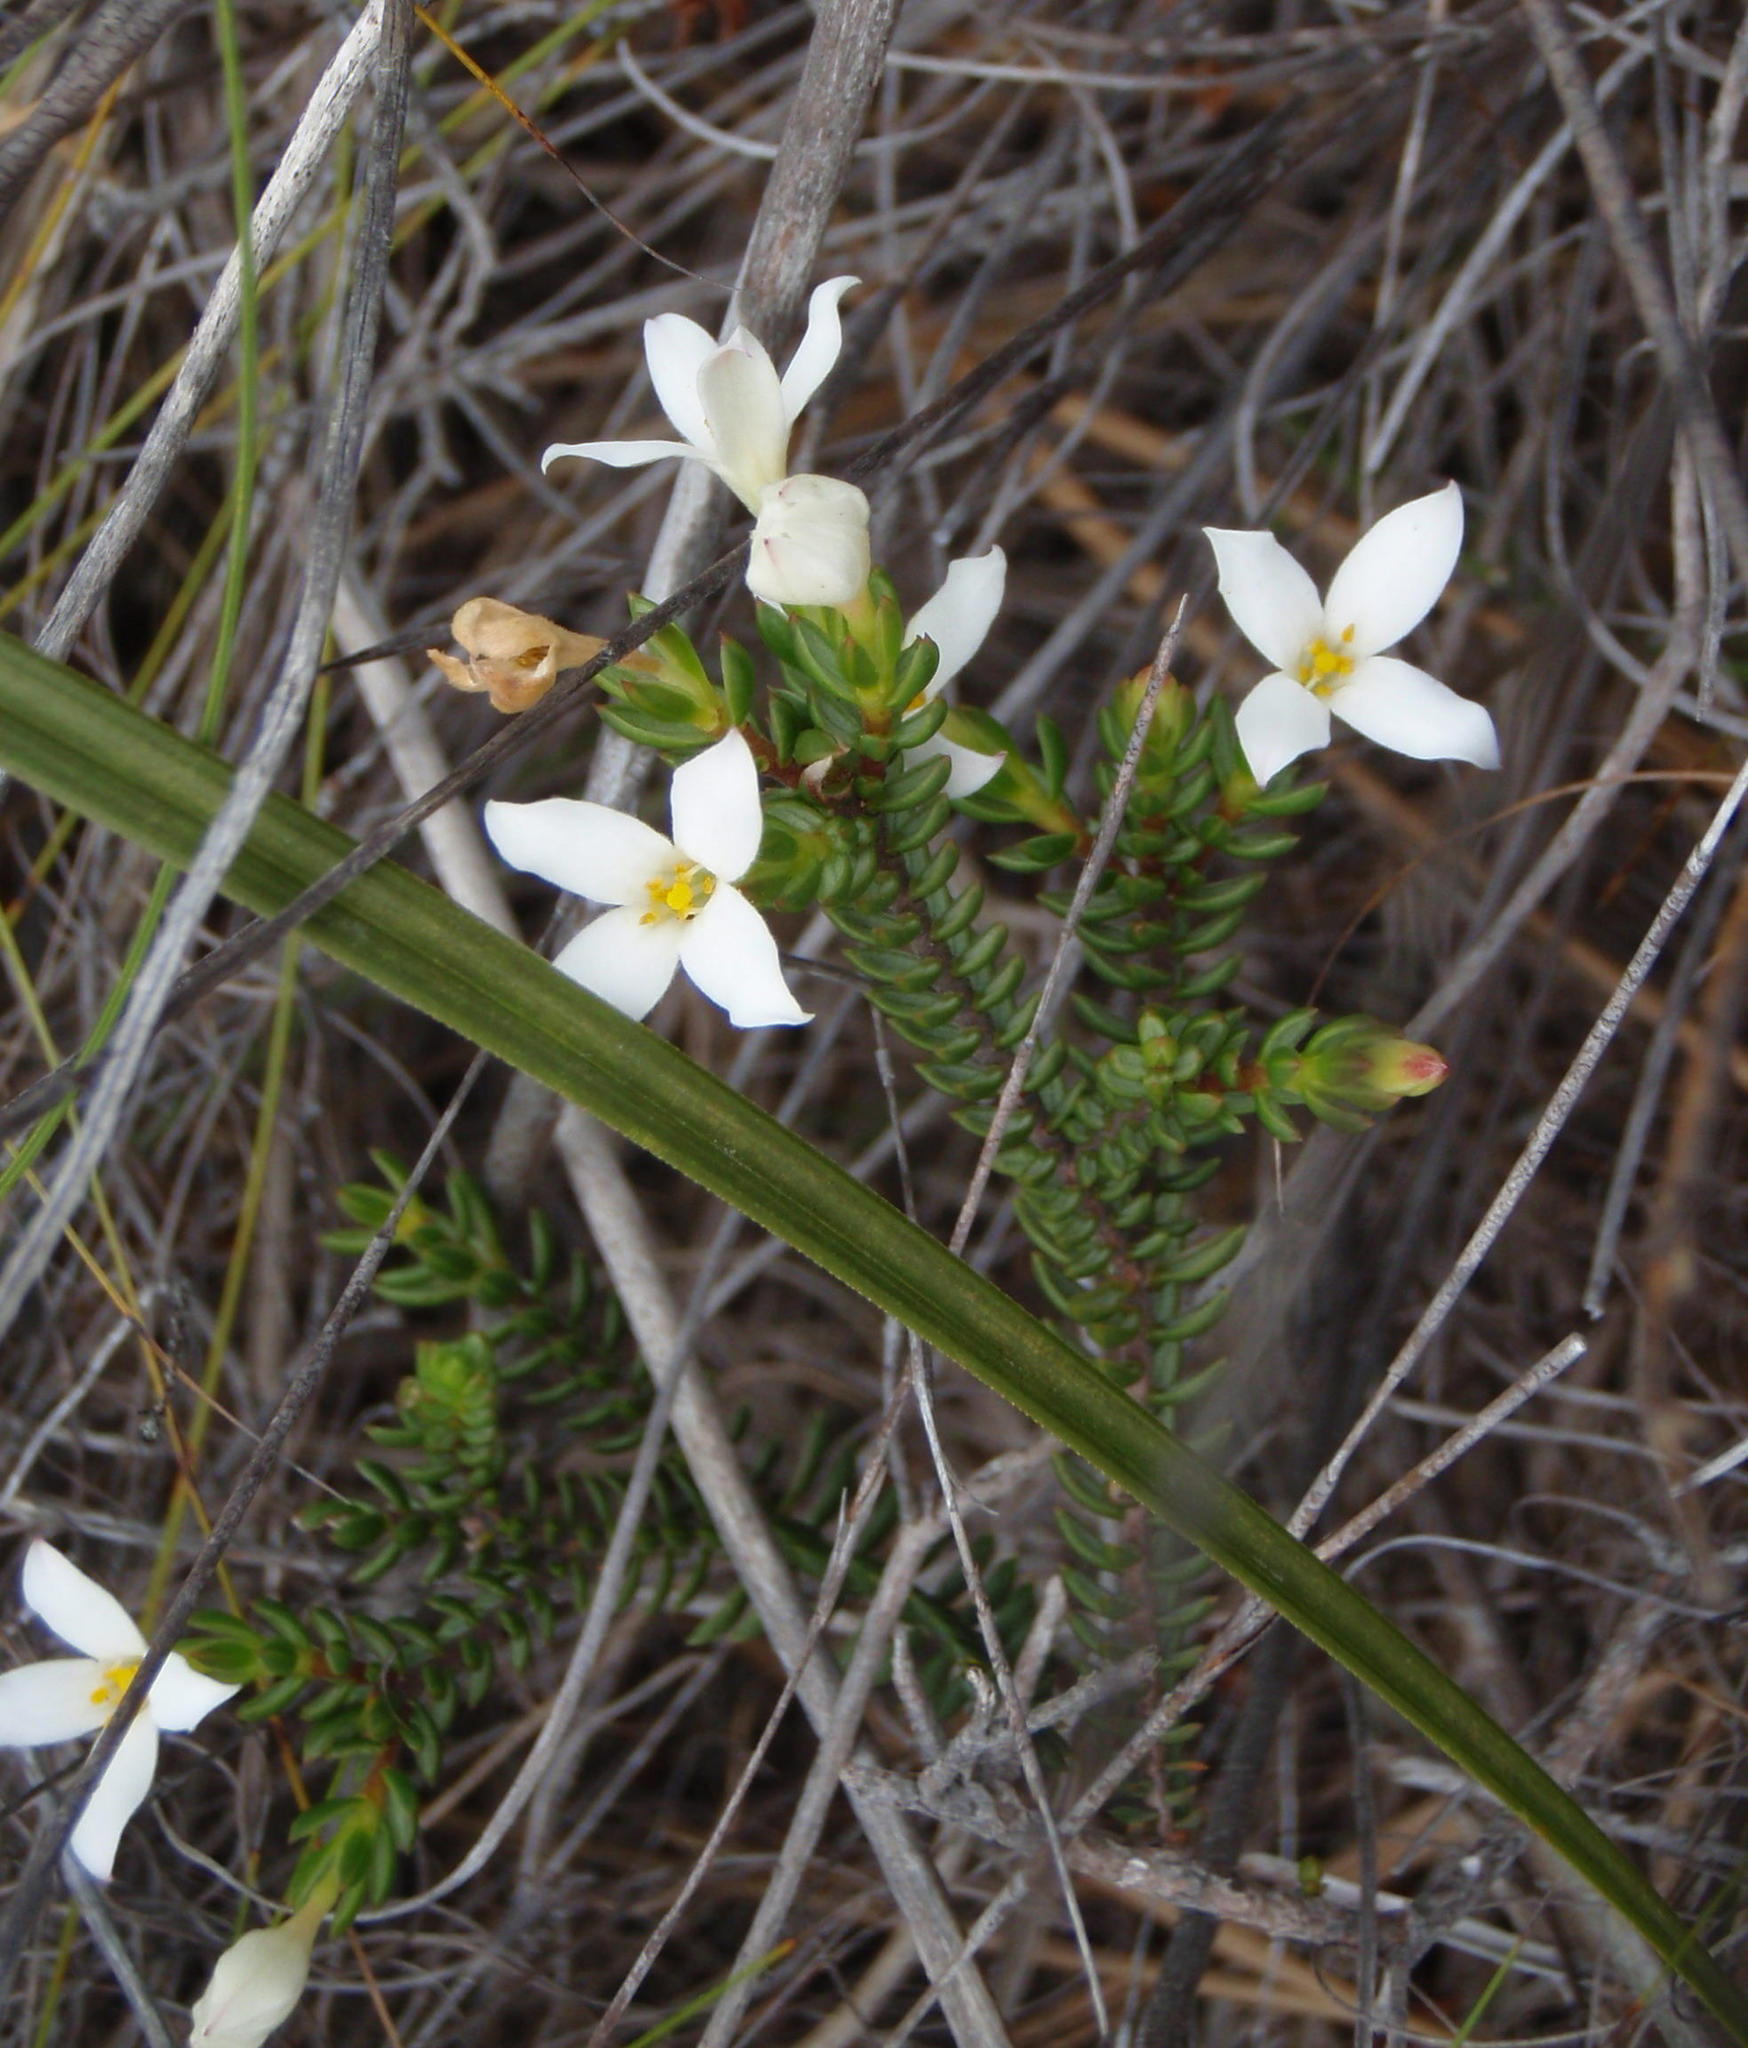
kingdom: Plantae
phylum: Tracheophyta
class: Magnoliopsida
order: Malvales
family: Thymelaeaceae
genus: Lachnaea
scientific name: Lachnaea grandiflora
